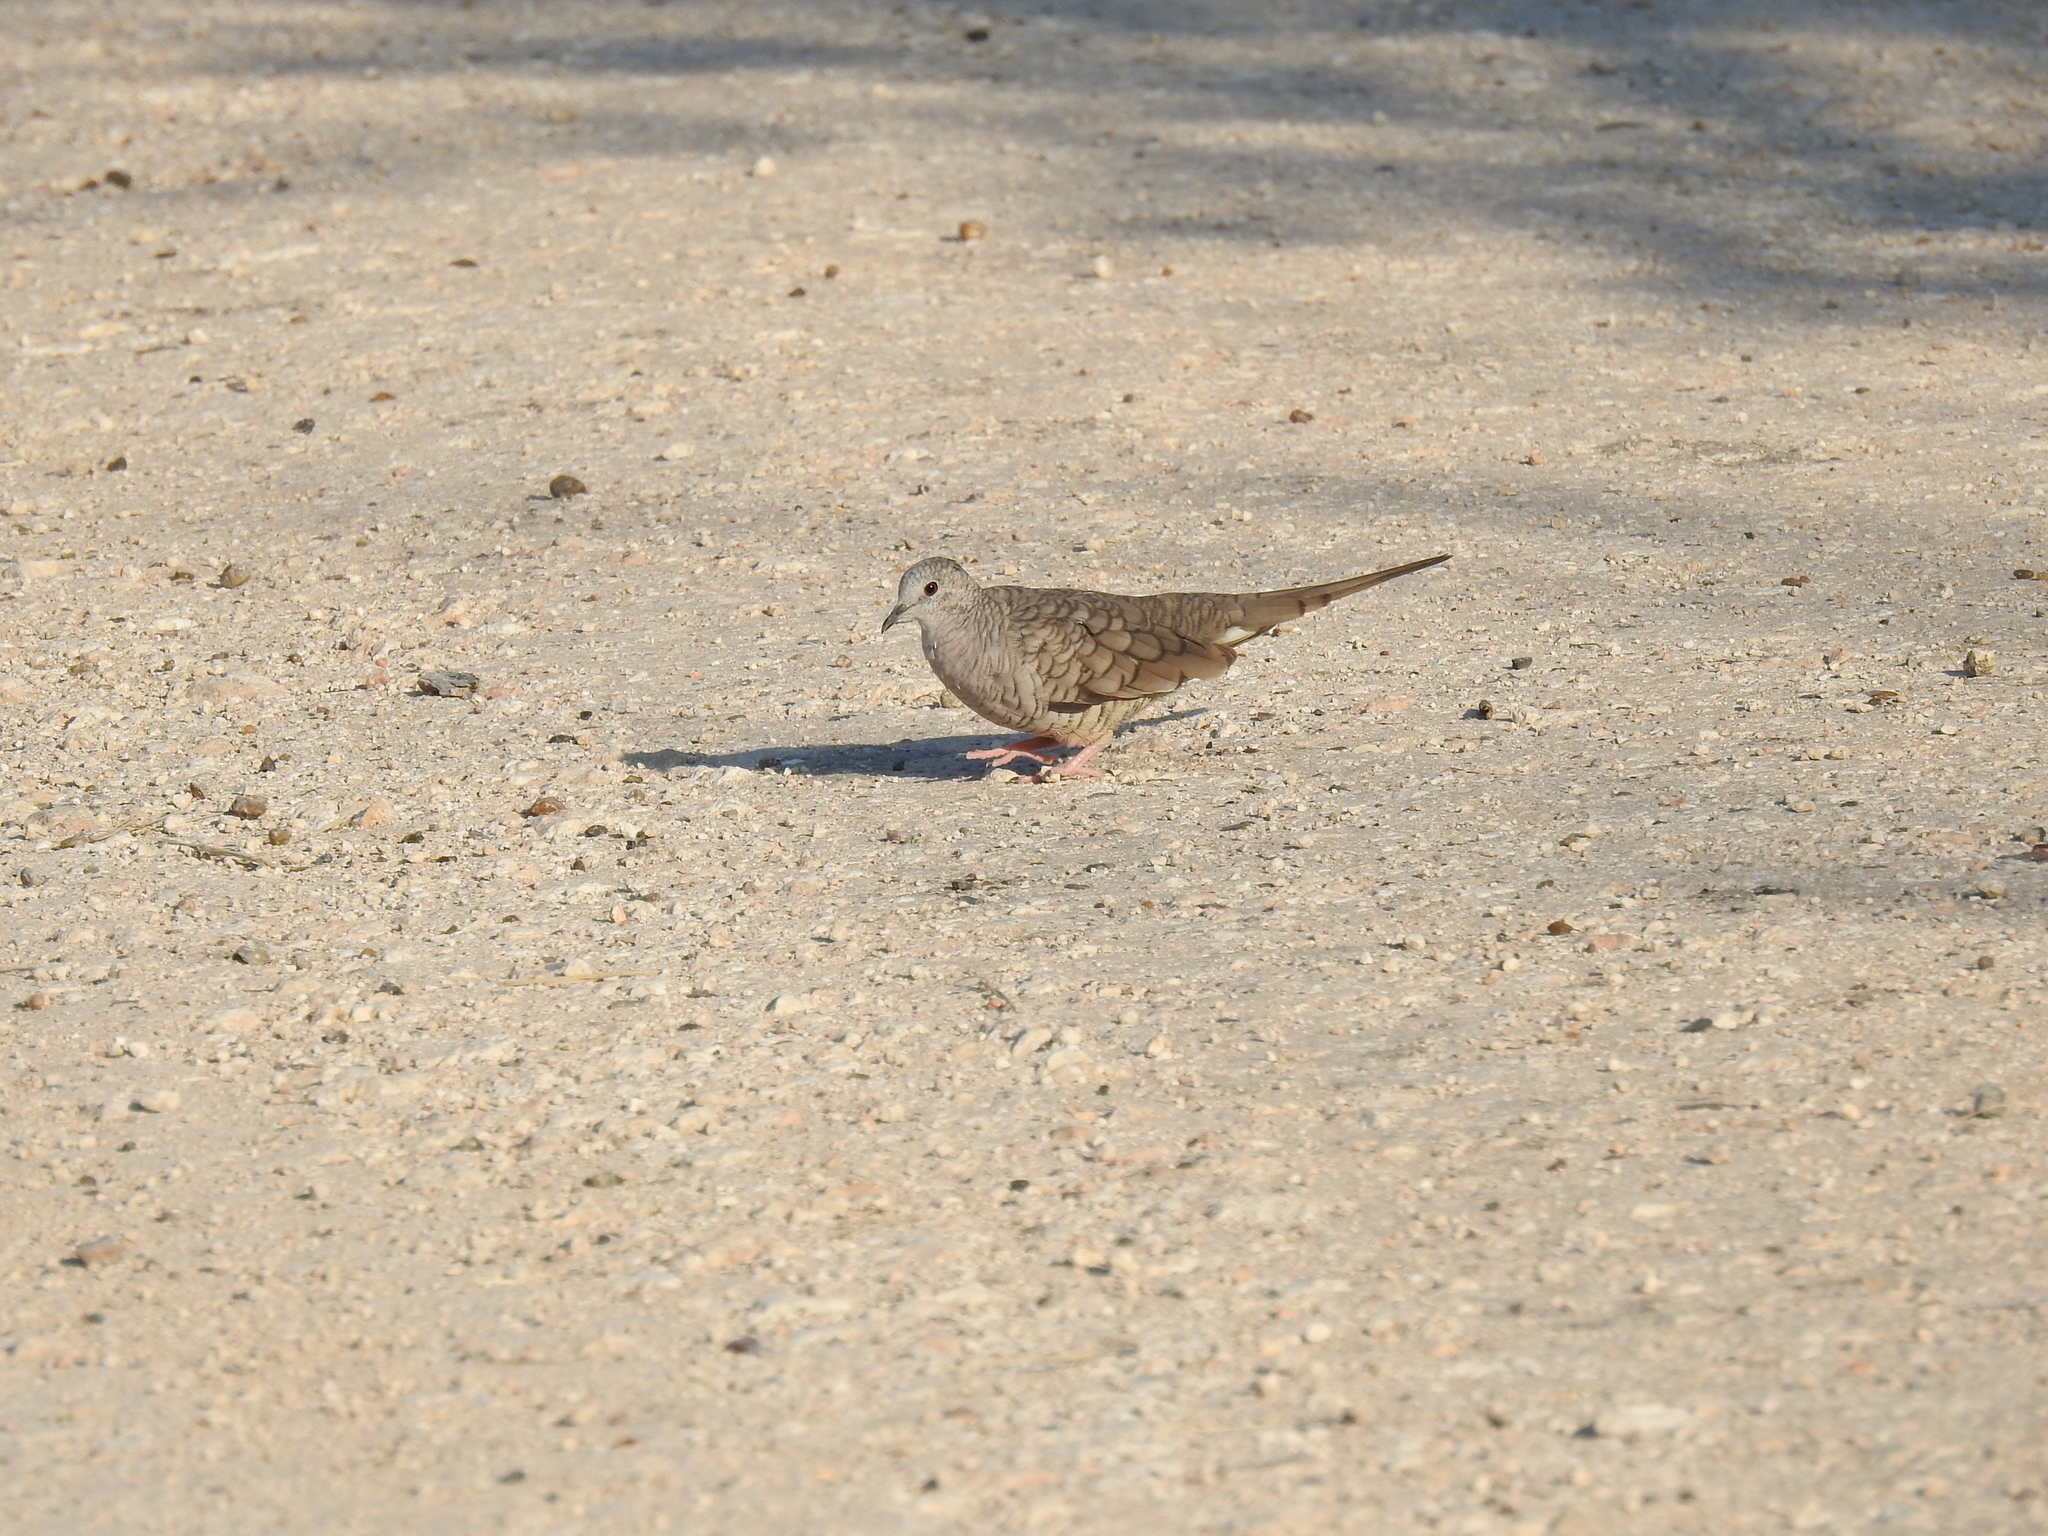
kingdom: Animalia
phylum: Chordata
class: Aves
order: Columbiformes
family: Columbidae
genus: Columbina
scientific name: Columbina inca
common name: Inca dove
